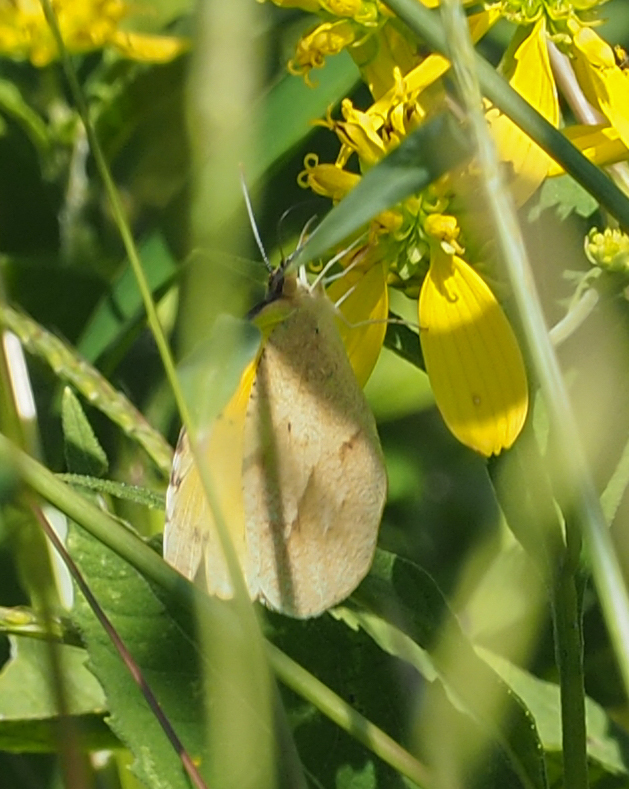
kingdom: Animalia
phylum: Arthropoda
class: Insecta
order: Lepidoptera
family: Pieridae
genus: Abaeis
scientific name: Abaeis nicippe
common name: Sleepy orange
